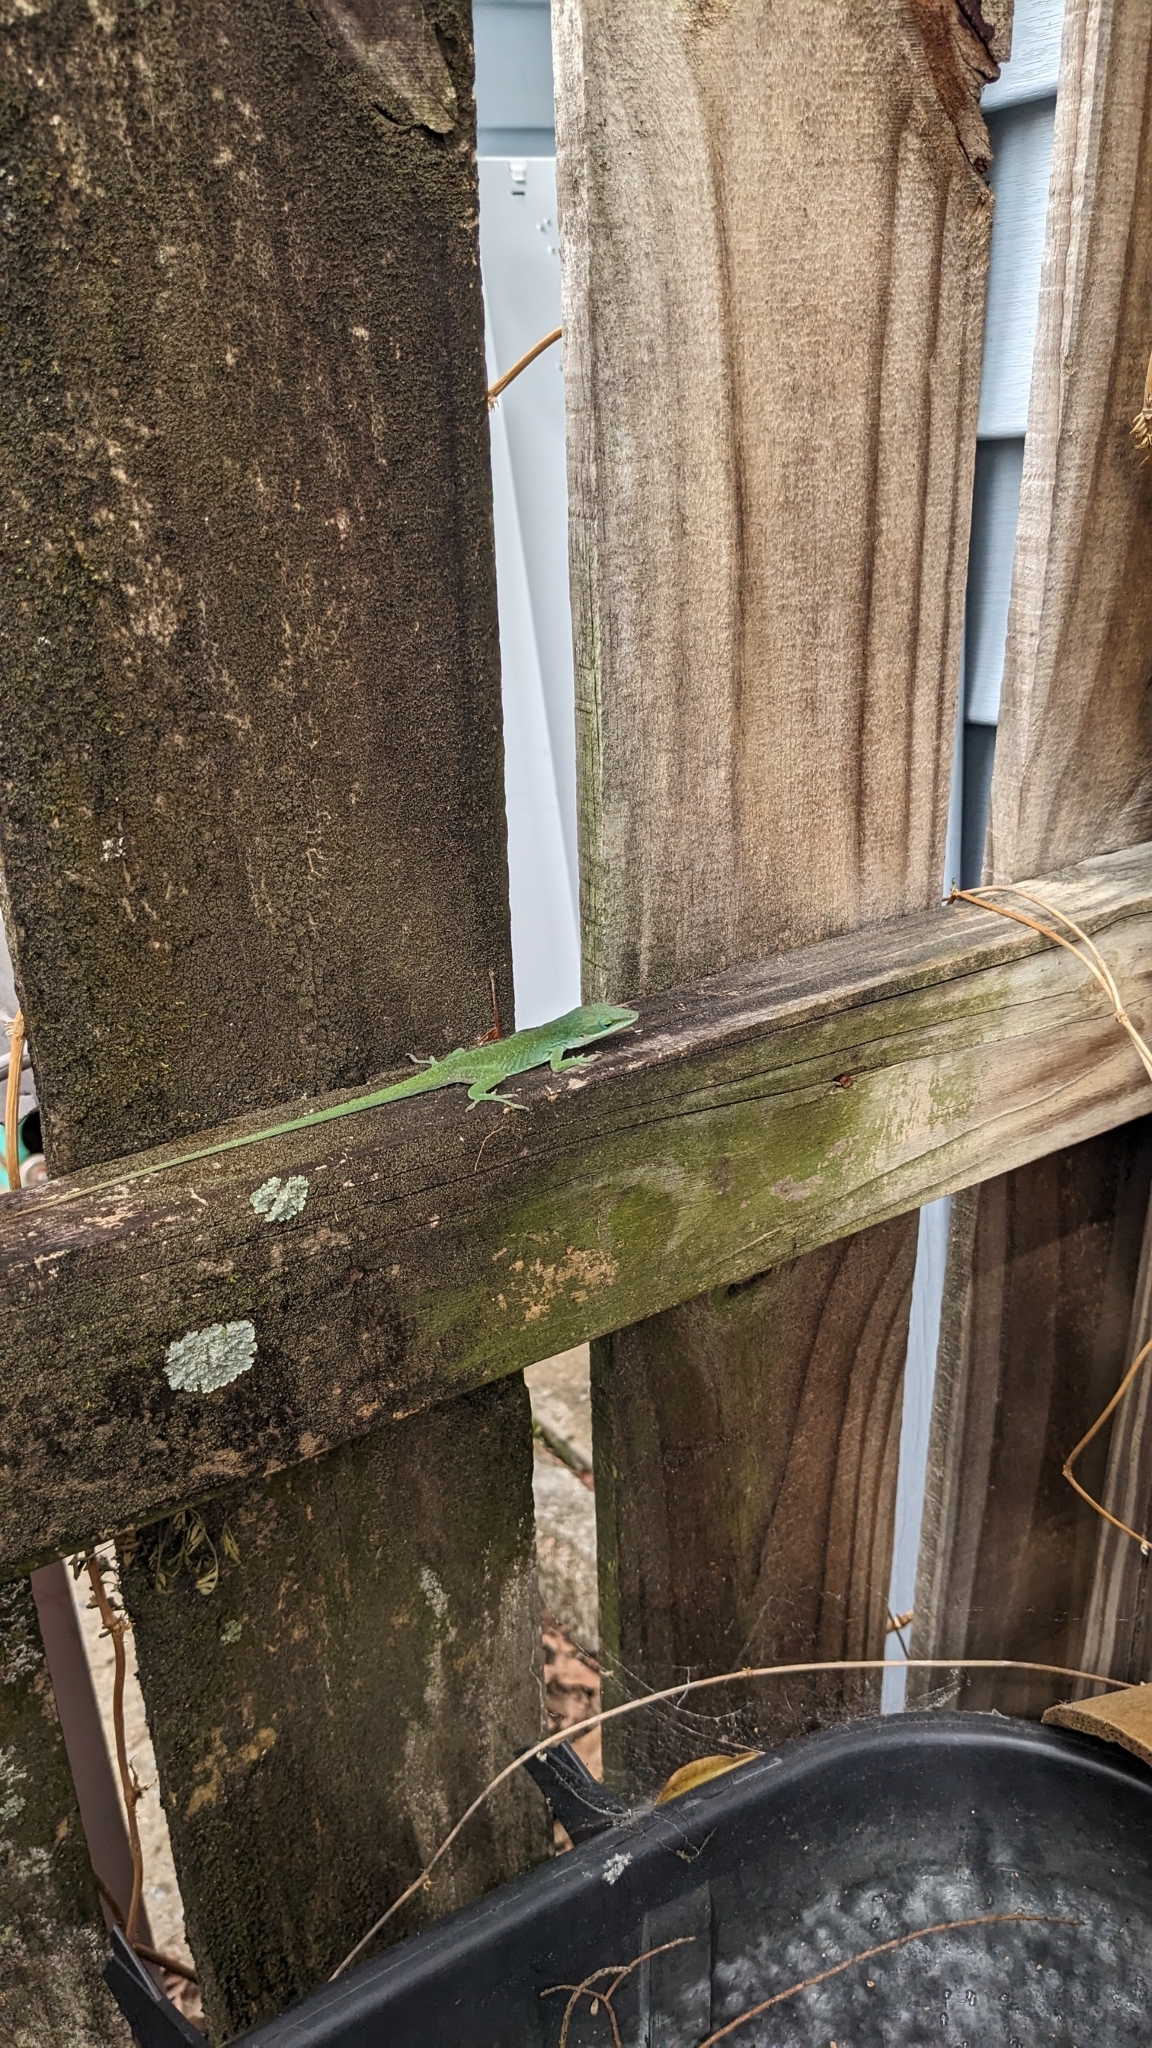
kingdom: Animalia
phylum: Chordata
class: Squamata
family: Dactyloidae
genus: Anolis
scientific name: Anolis carolinensis
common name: Green anole
